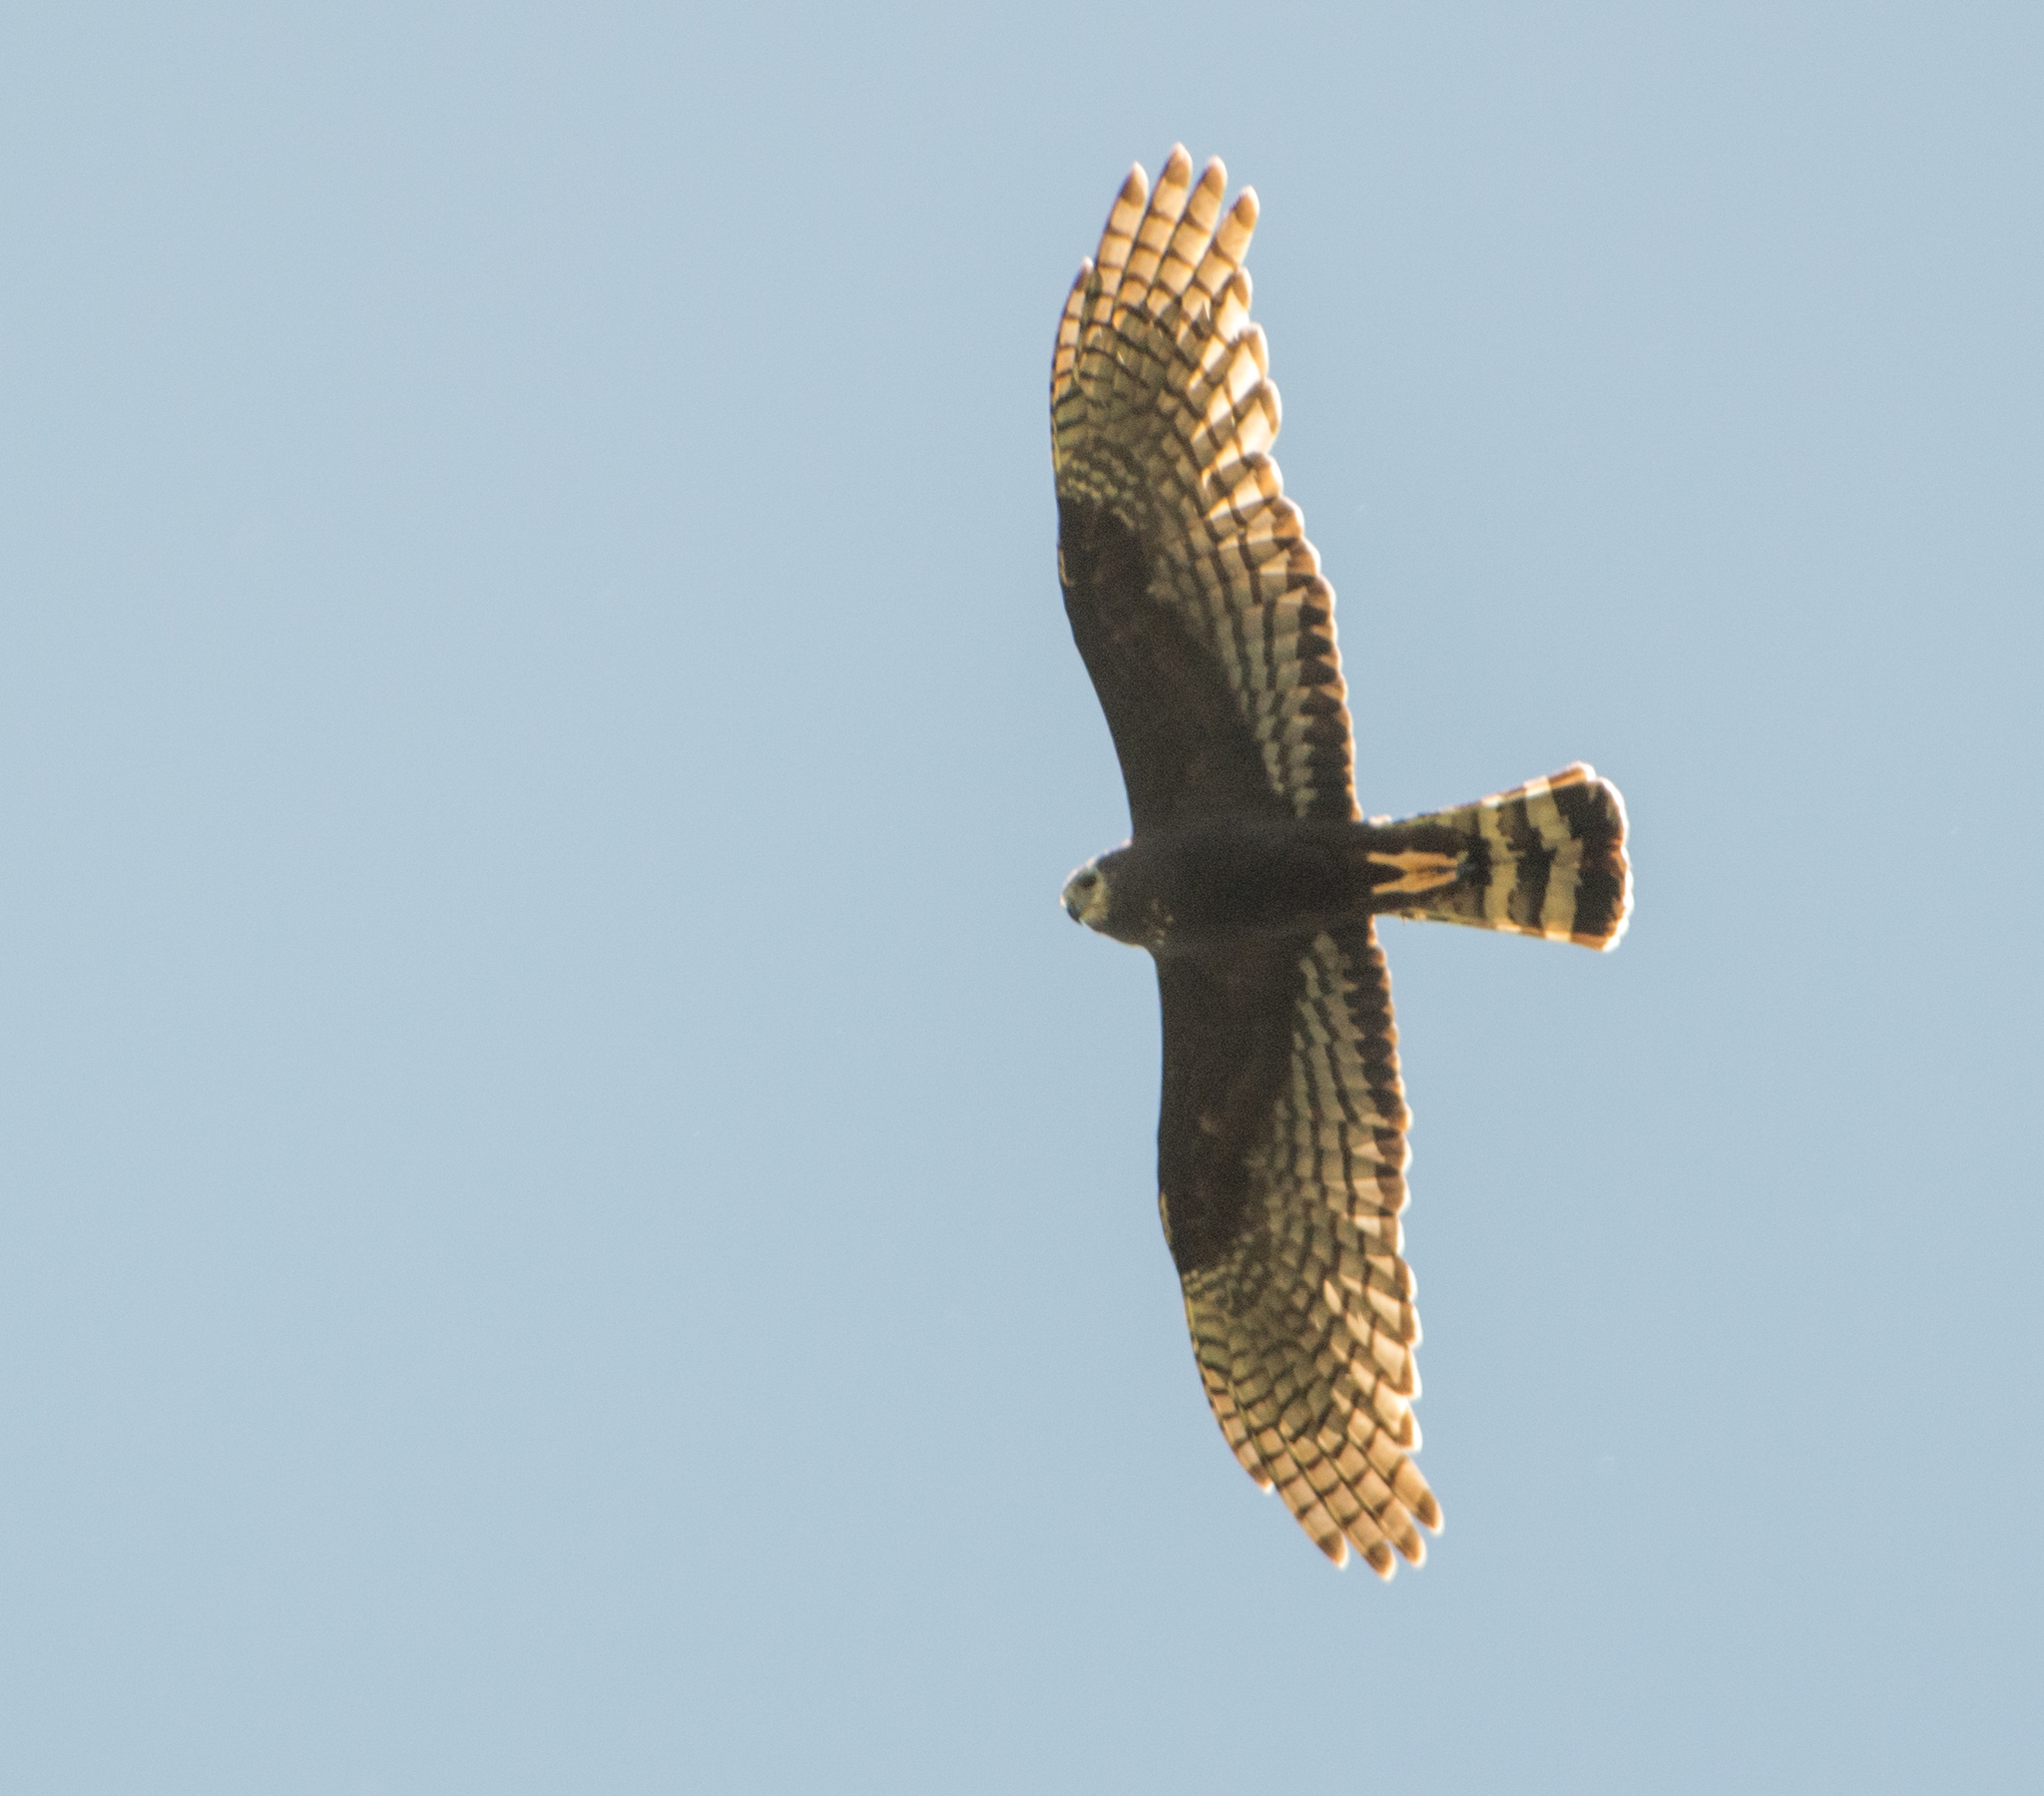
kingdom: Animalia
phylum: Chordata
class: Aves
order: Accipitriformes
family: Accipitridae
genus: Circus
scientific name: Circus buffoni
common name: Long-winged harrier
